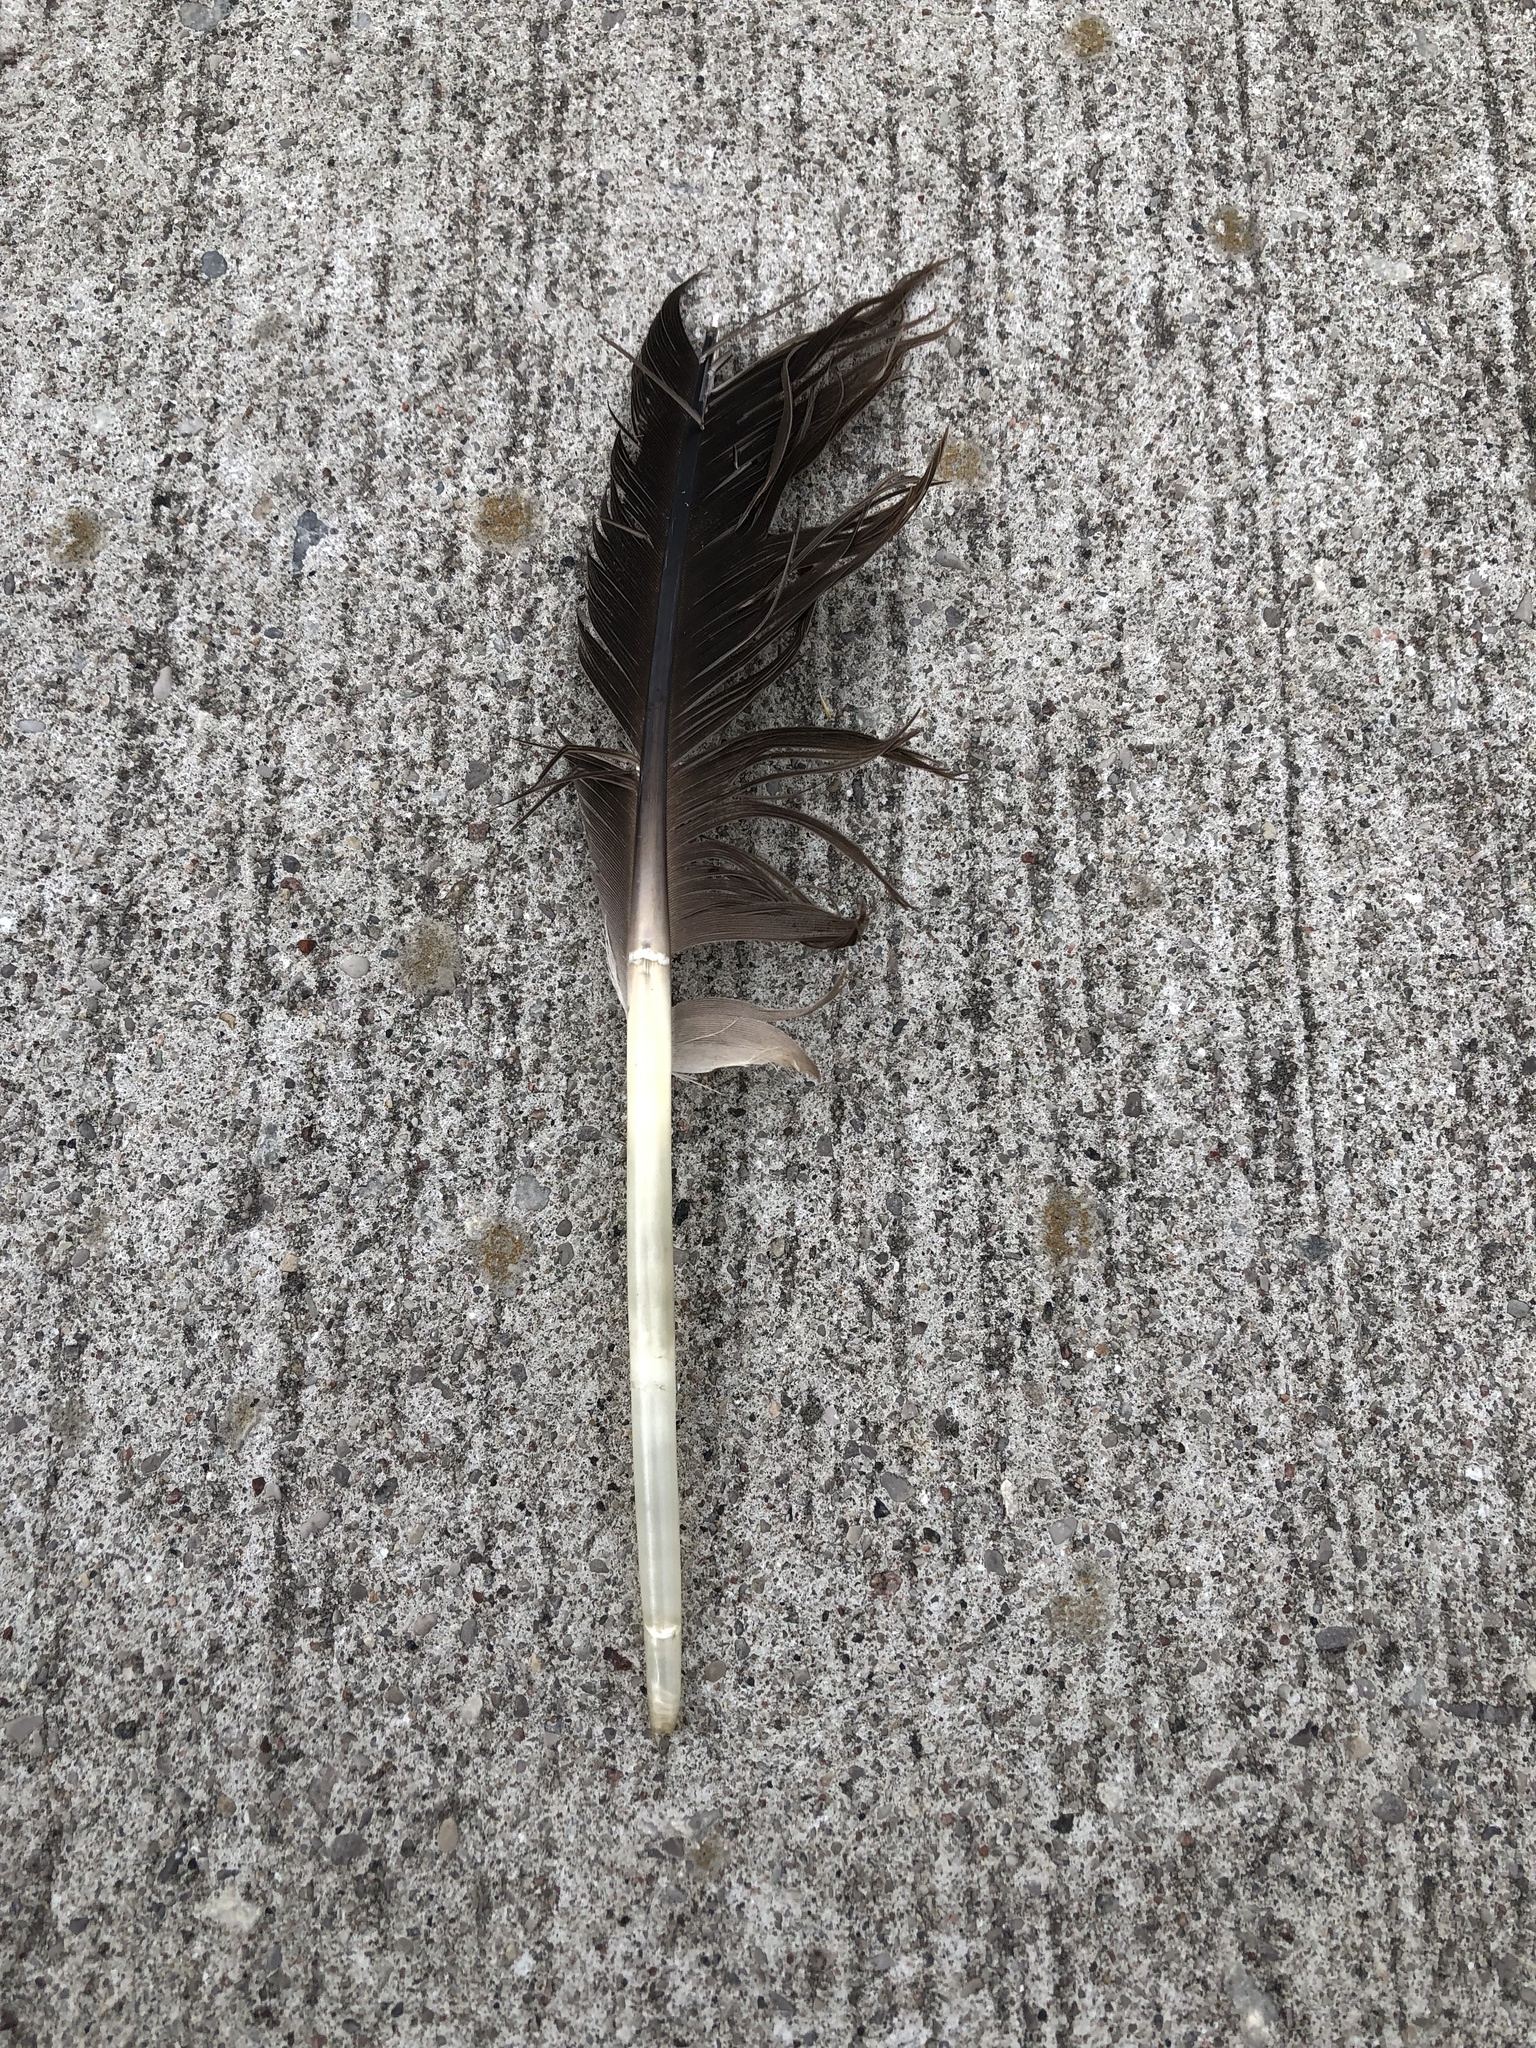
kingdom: Animalia
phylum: Chordata
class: Aves
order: Anseriformes
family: Anatidae
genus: Branta
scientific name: Branta canadensis
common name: Canada goose
